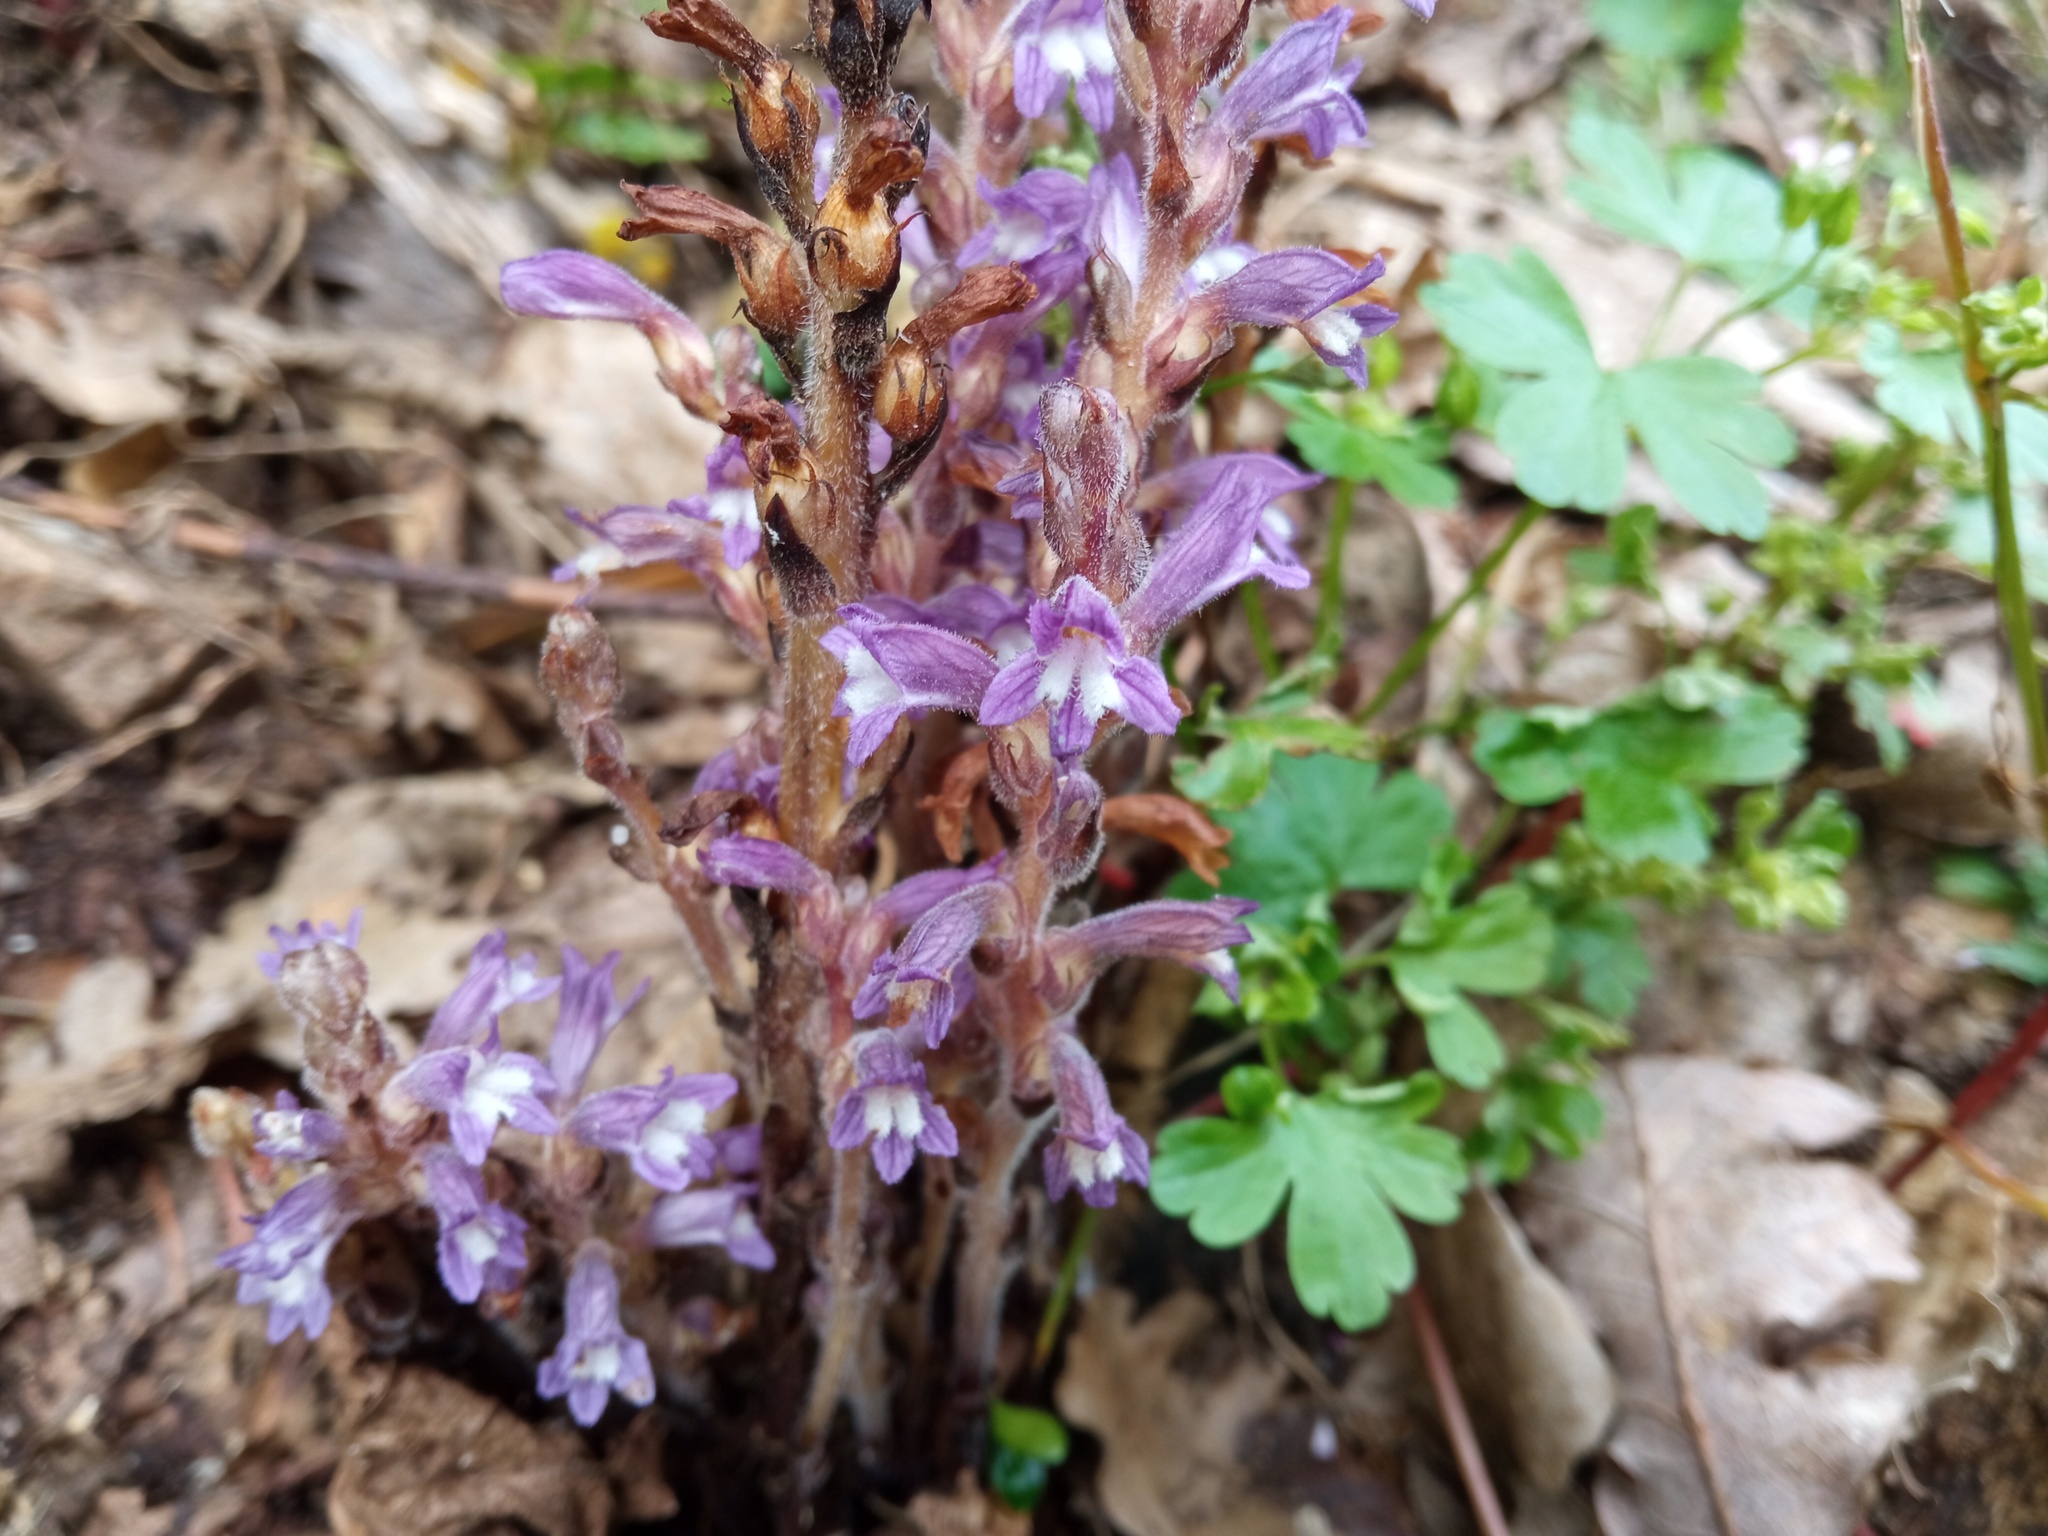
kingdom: Plantae
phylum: Tracheophyta
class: Magnoliopsida
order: Lamiales
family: Orobanchaceae
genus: Phelipanche
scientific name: Phelipanche mutelii
